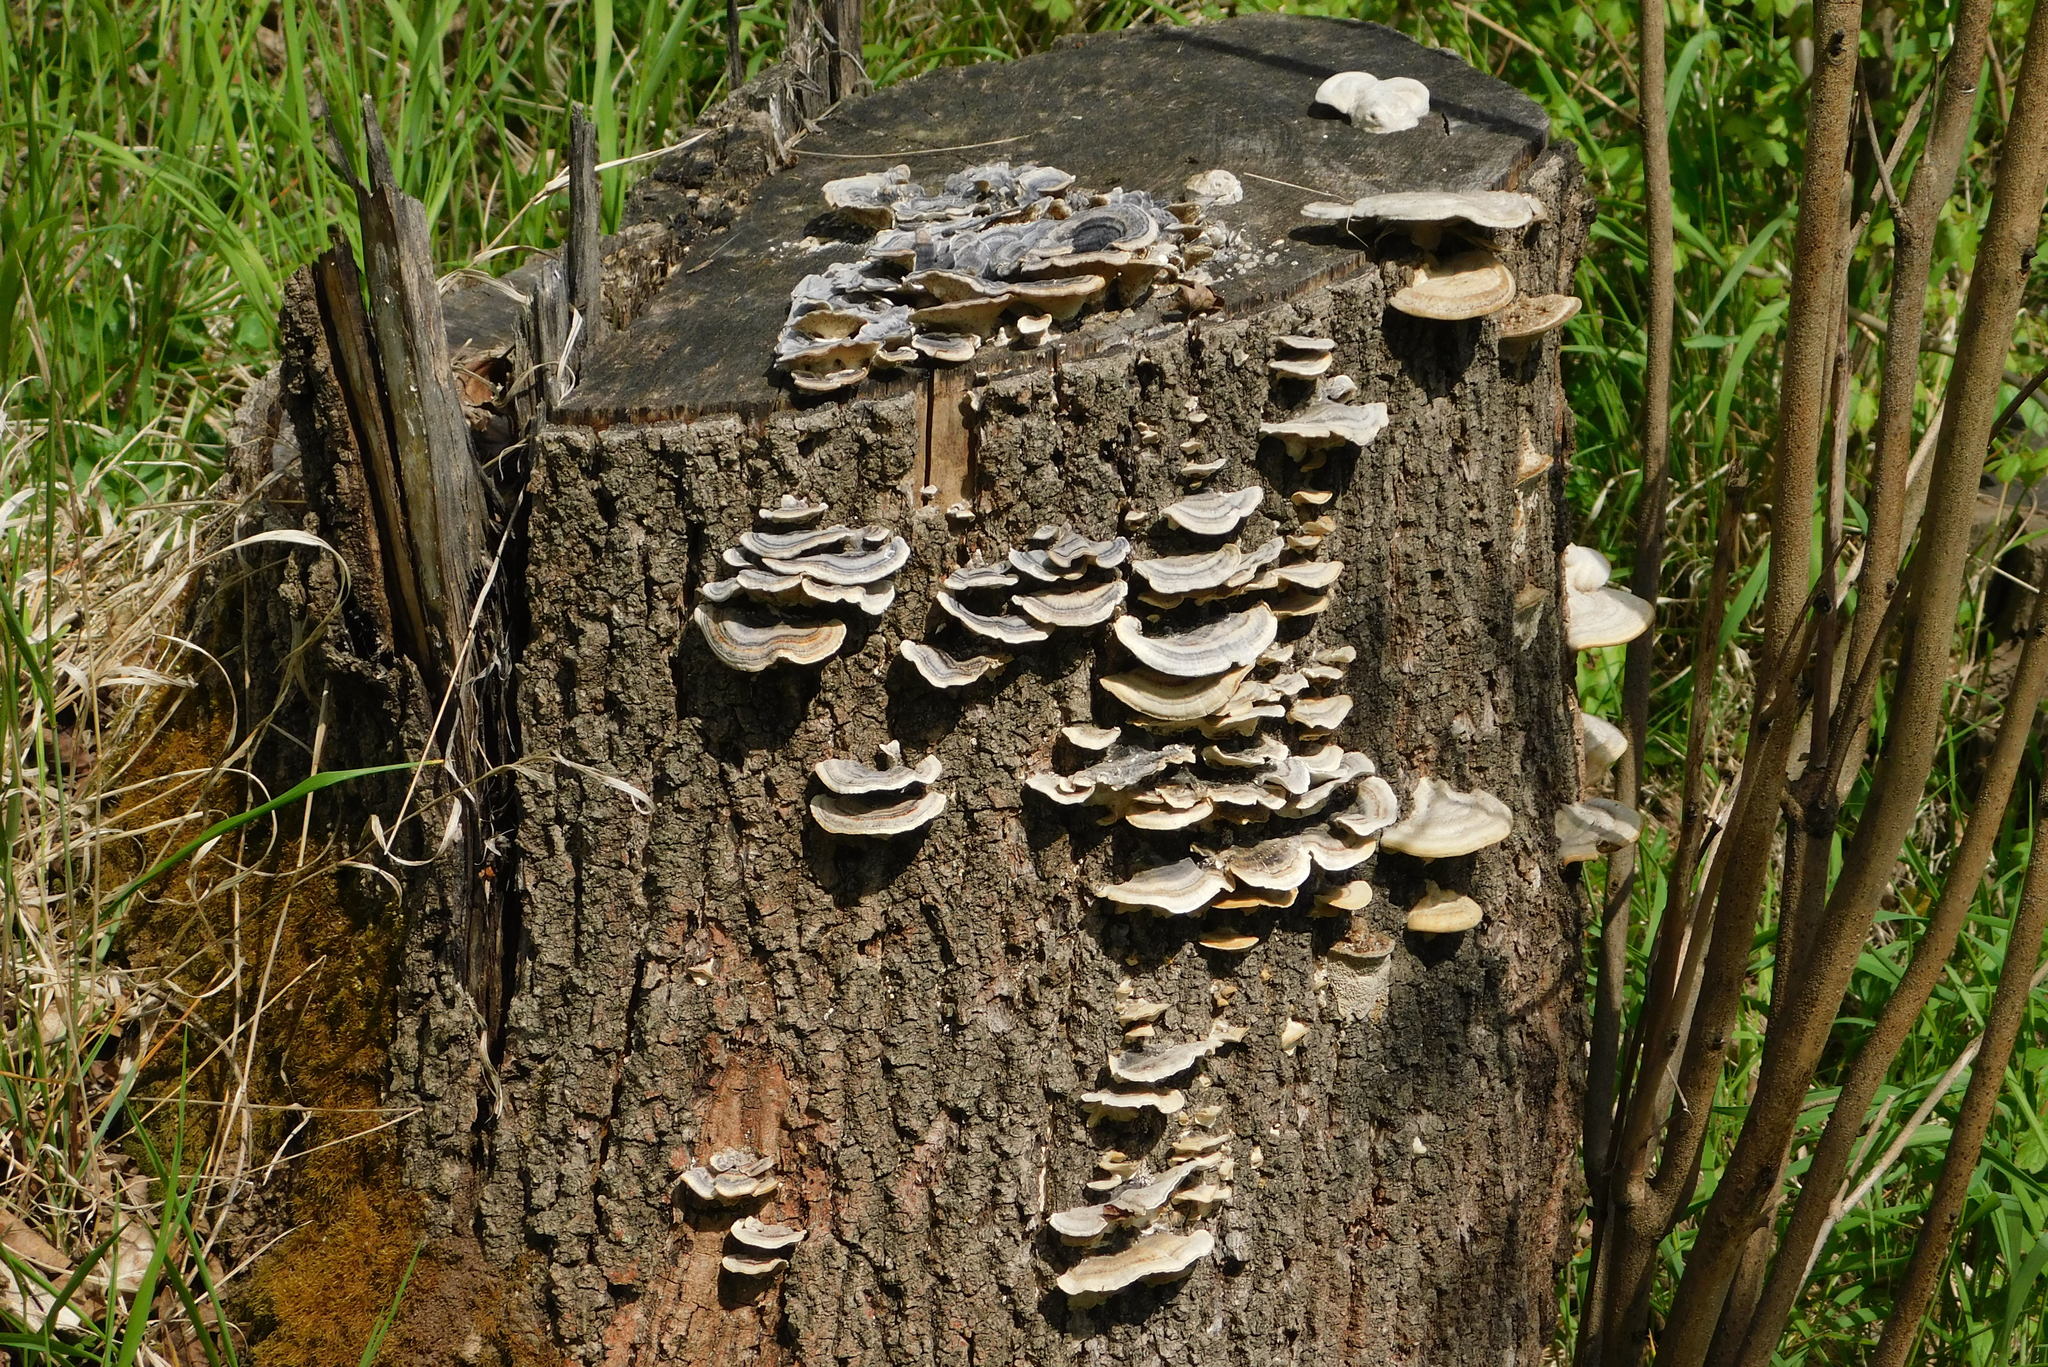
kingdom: Fungi
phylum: Basidiomycota
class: Agaricomycetes
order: Polyporales
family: Polyporaceae
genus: Trametes
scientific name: Trametes versicolor
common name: Turkeytail
